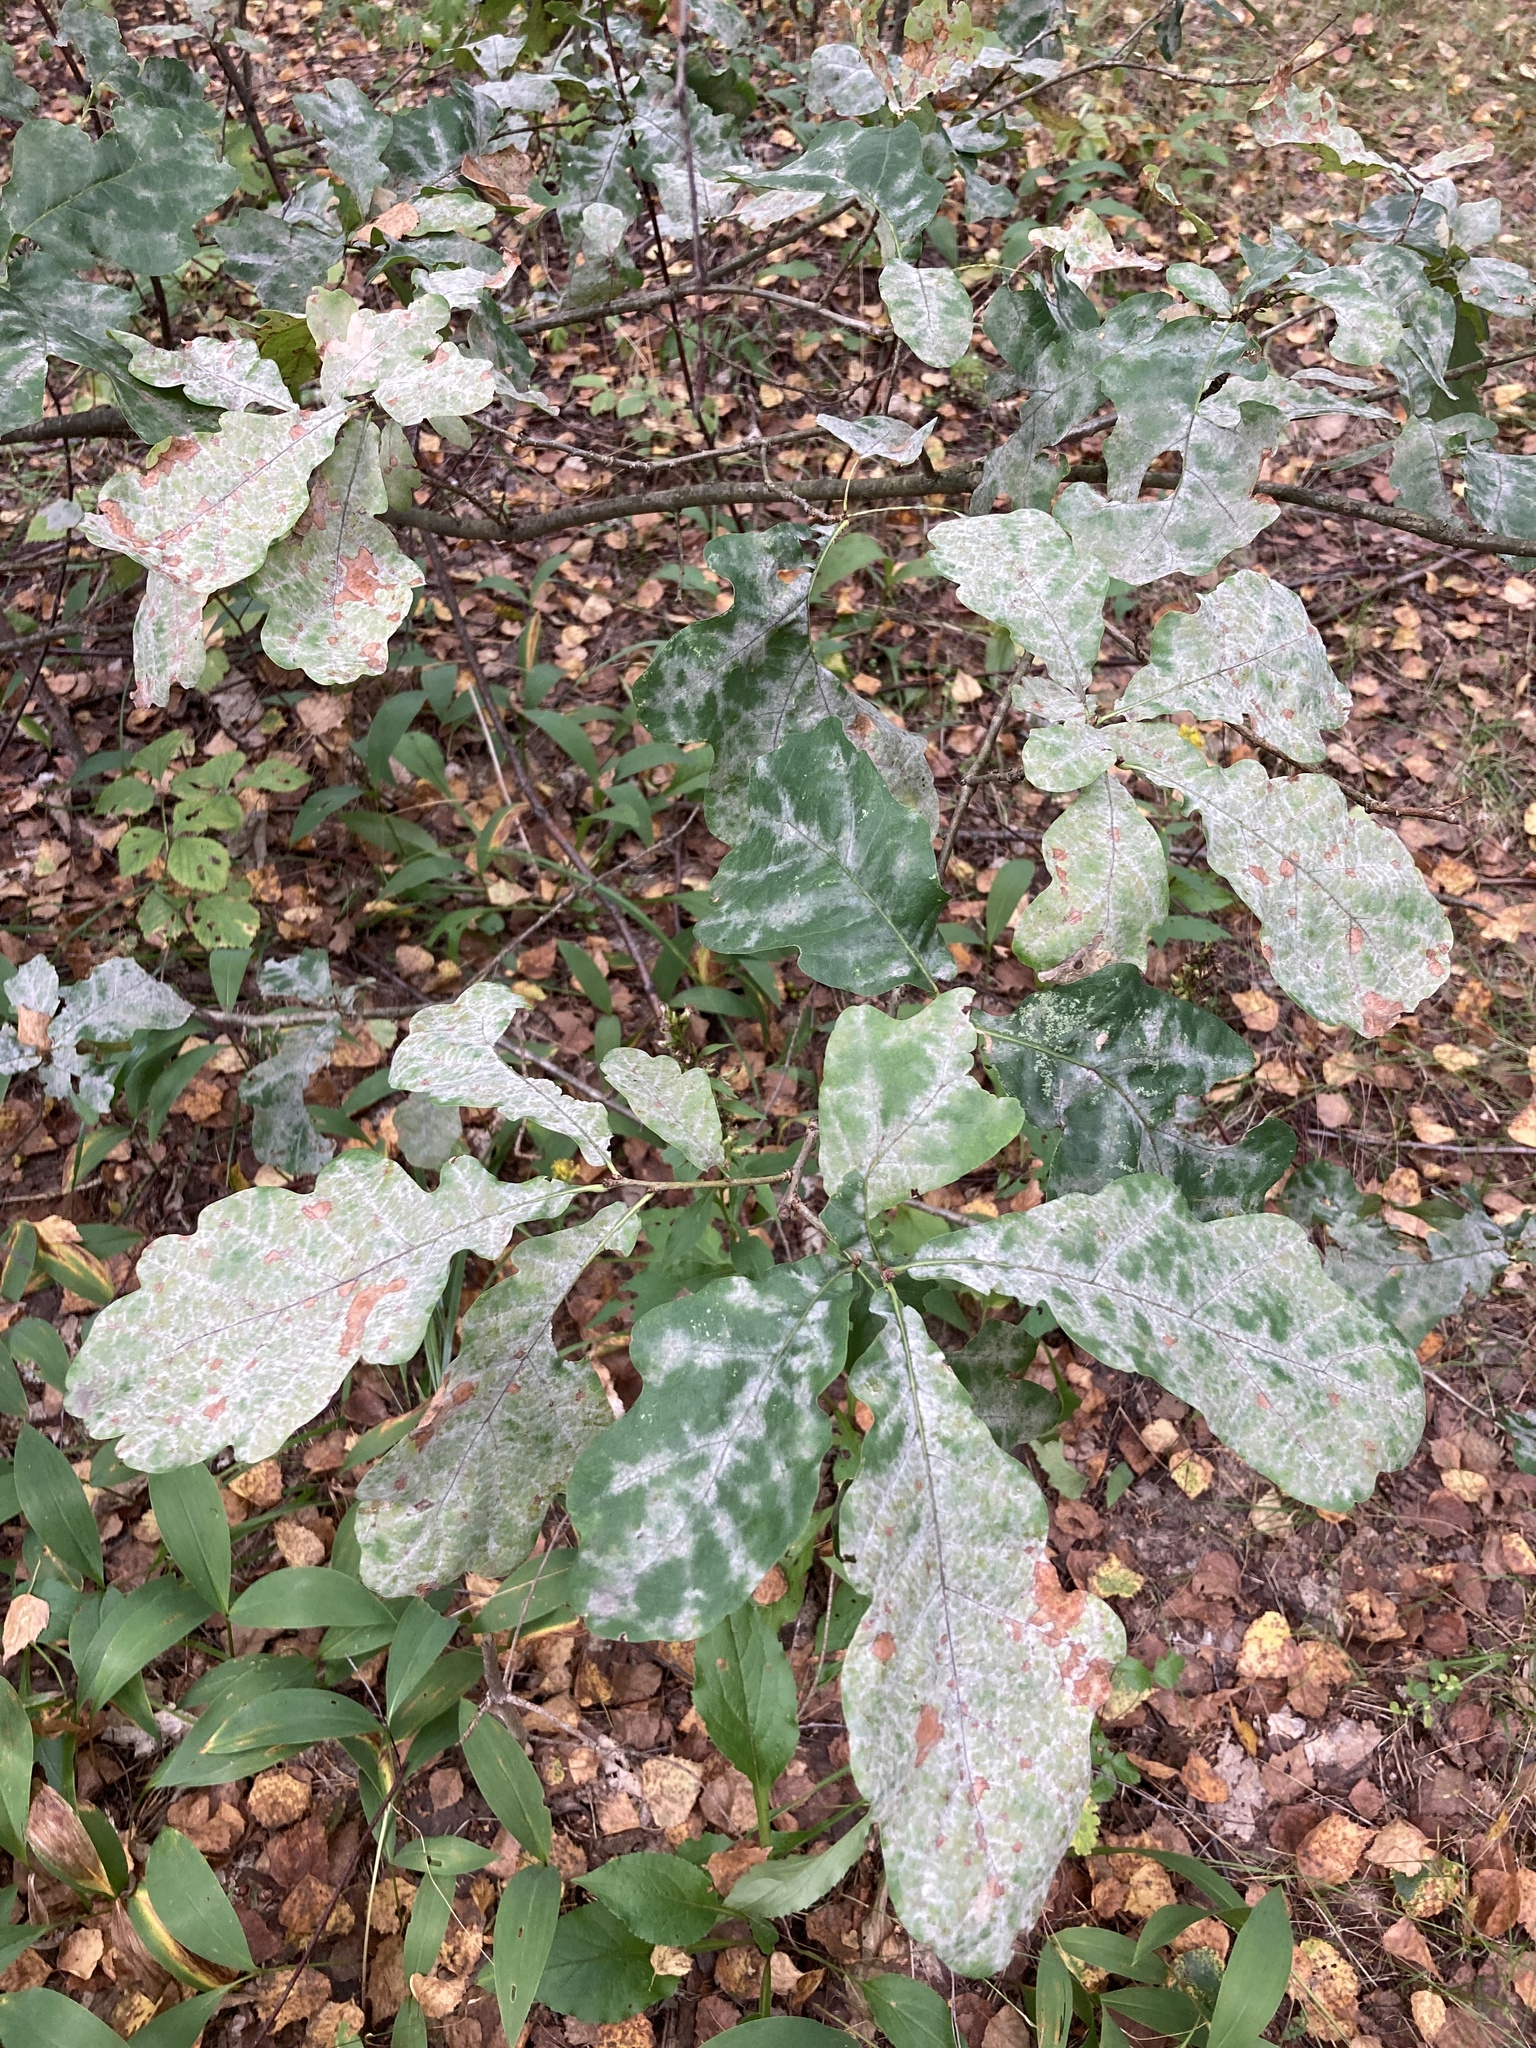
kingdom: Plantae
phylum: Tracheophyta
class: Magnoliopsida
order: Fagales
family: Fagaceae
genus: Quercus
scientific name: Quercus robur
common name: Pedunculate oak
